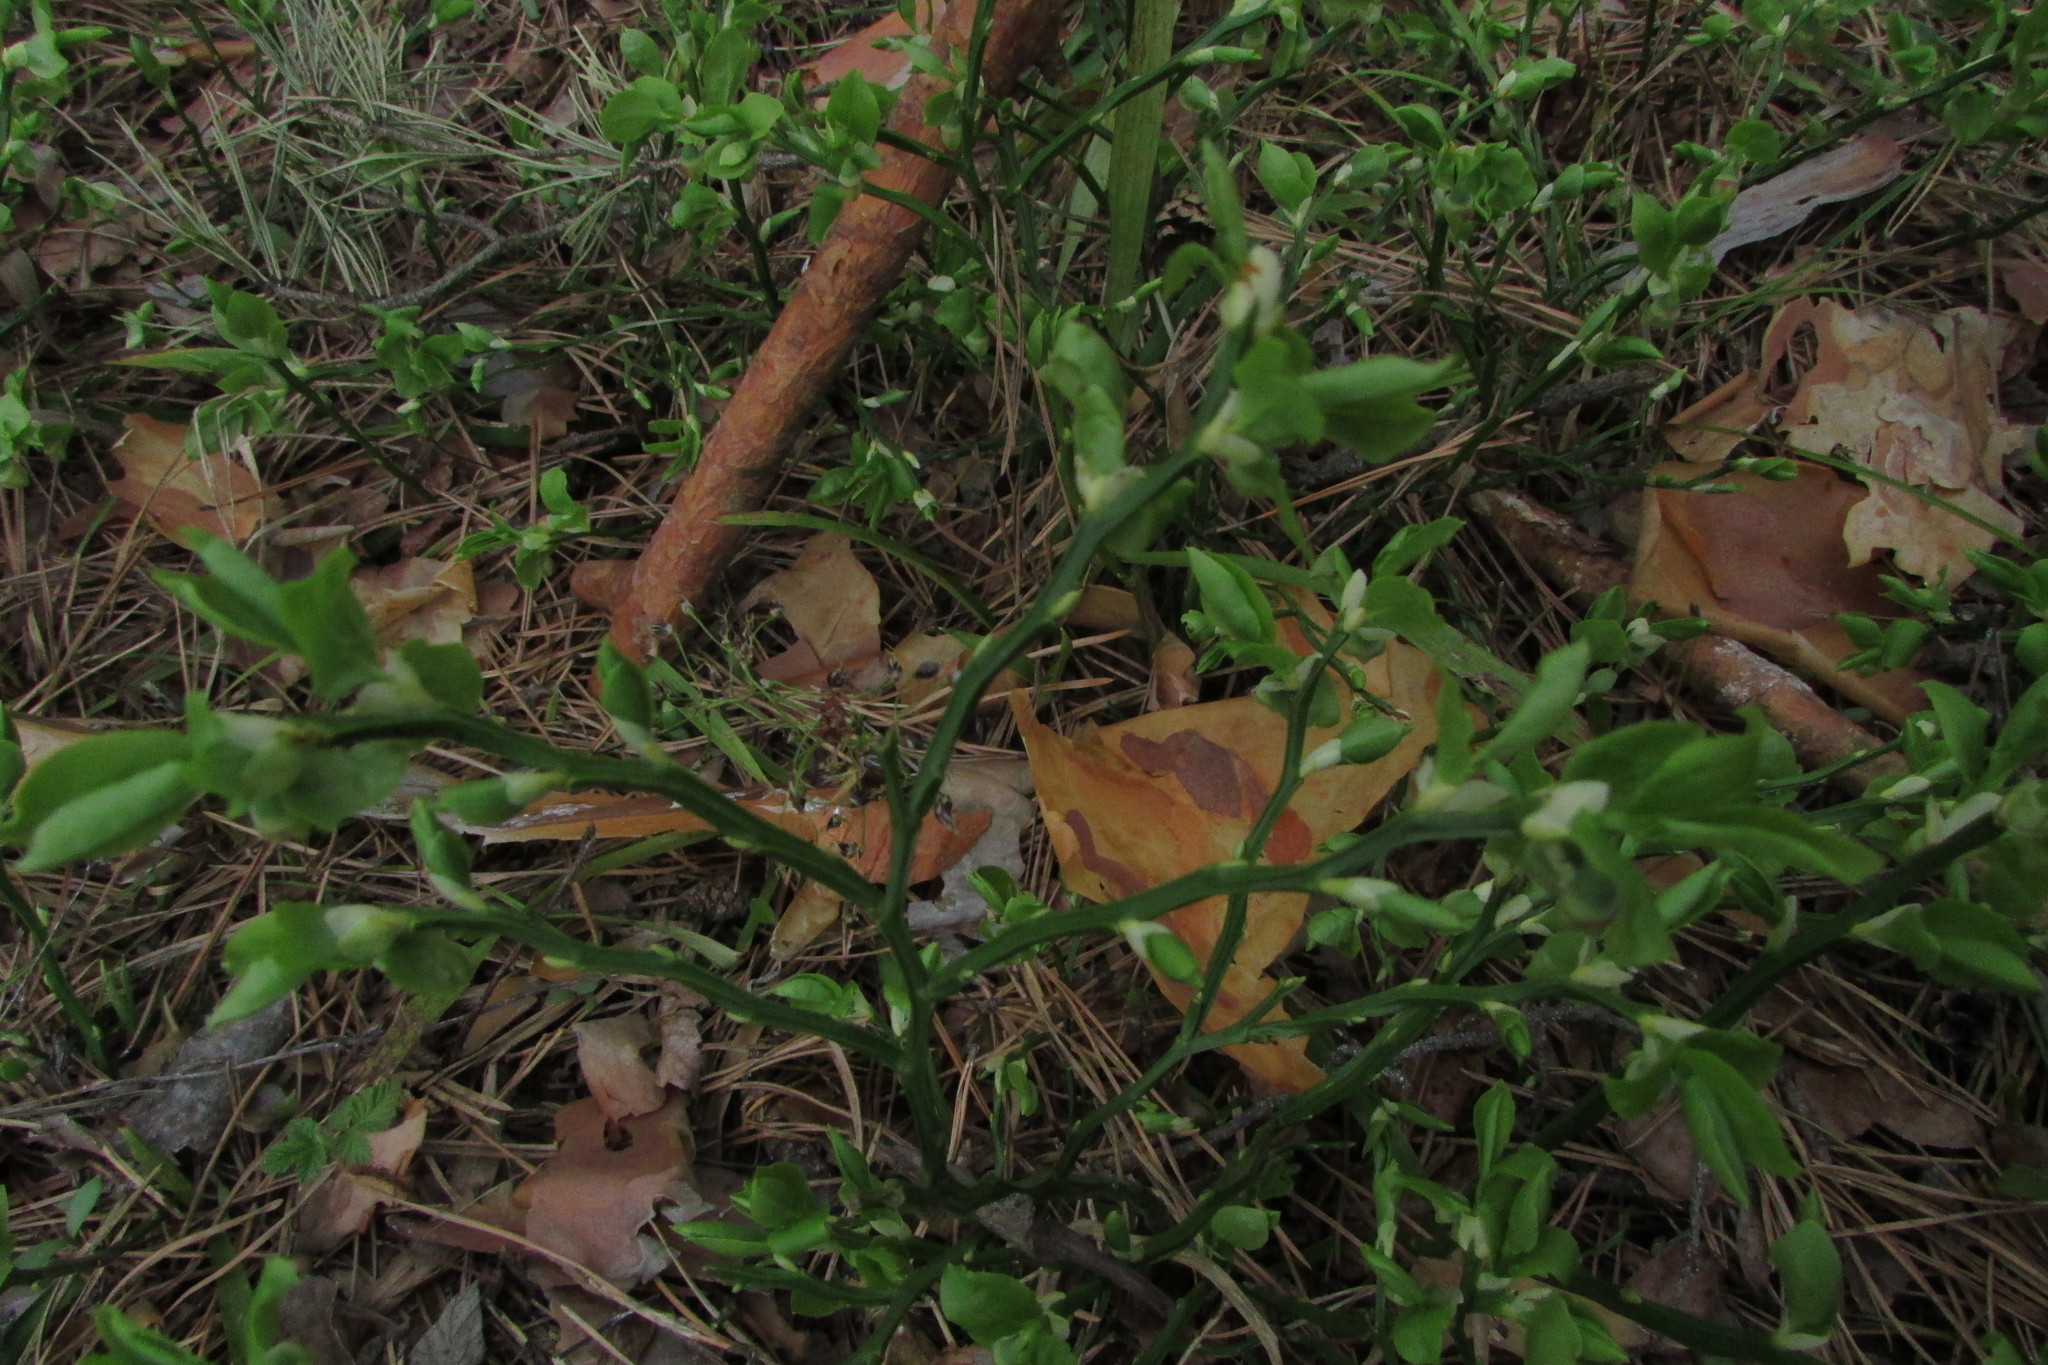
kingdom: Plantae
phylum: Tracheophyta
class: Magnoliopsida
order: Ericales
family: Ericaceae
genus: Vaccinium
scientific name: Vaccinium myrtillus
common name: Bilberry
